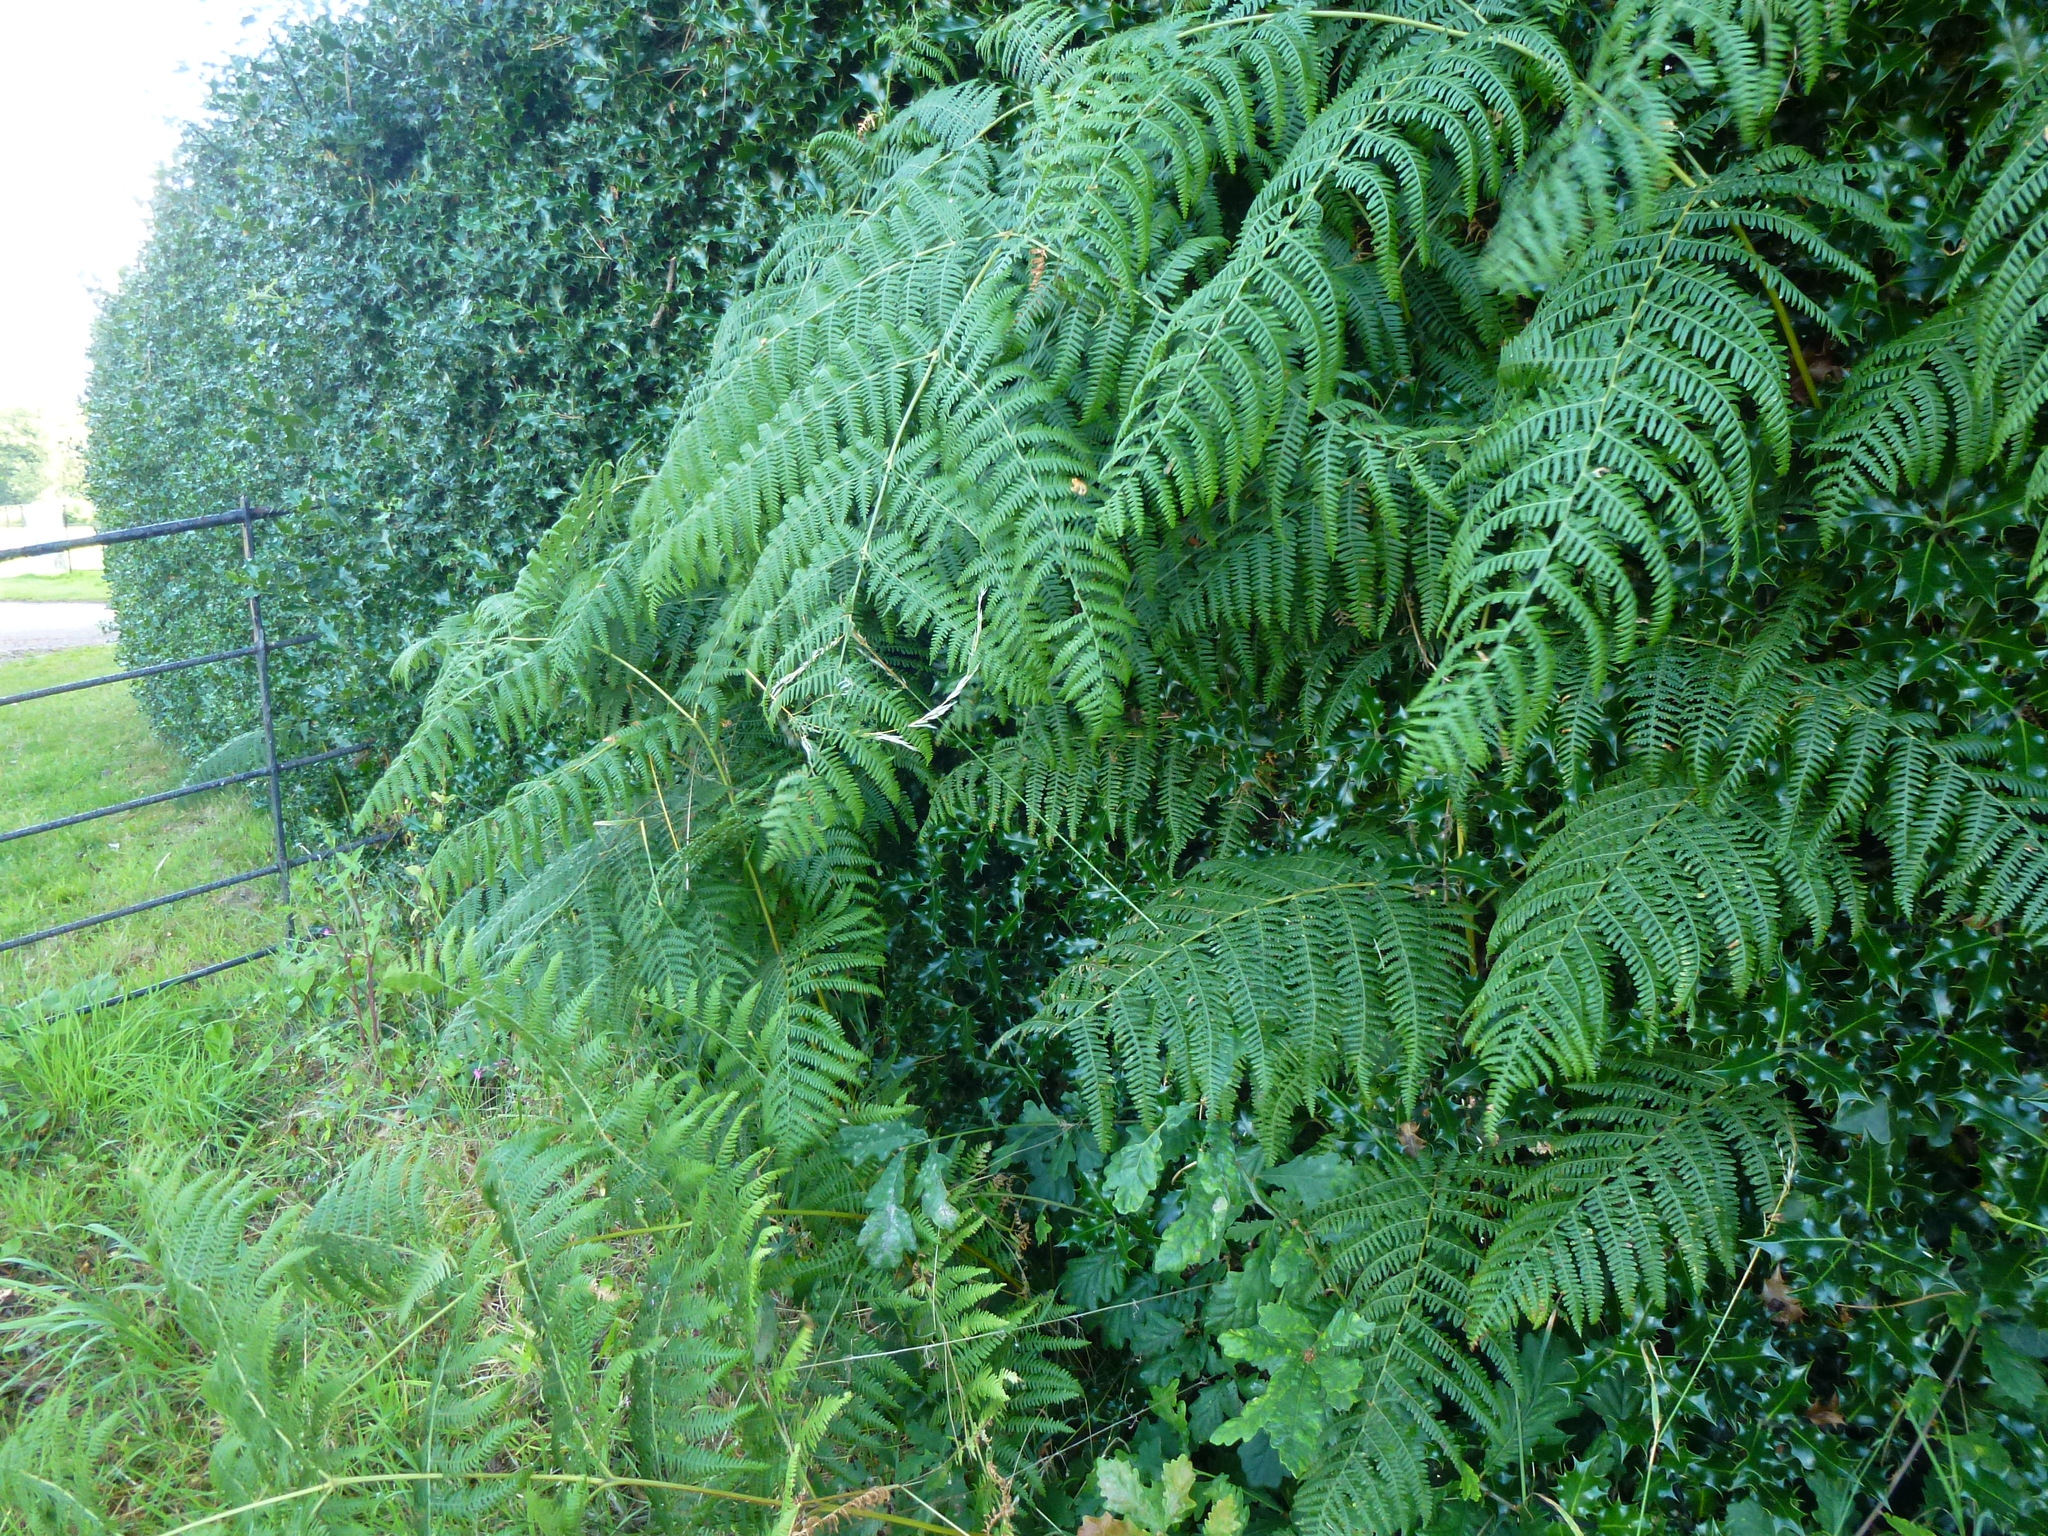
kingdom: Plantae
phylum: Tracheophyta
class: Polypodiopsida
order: Polypodiales
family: Dennstaedtiaceae
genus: Pteridium
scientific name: Pteridium aquilinum
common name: Bracken
